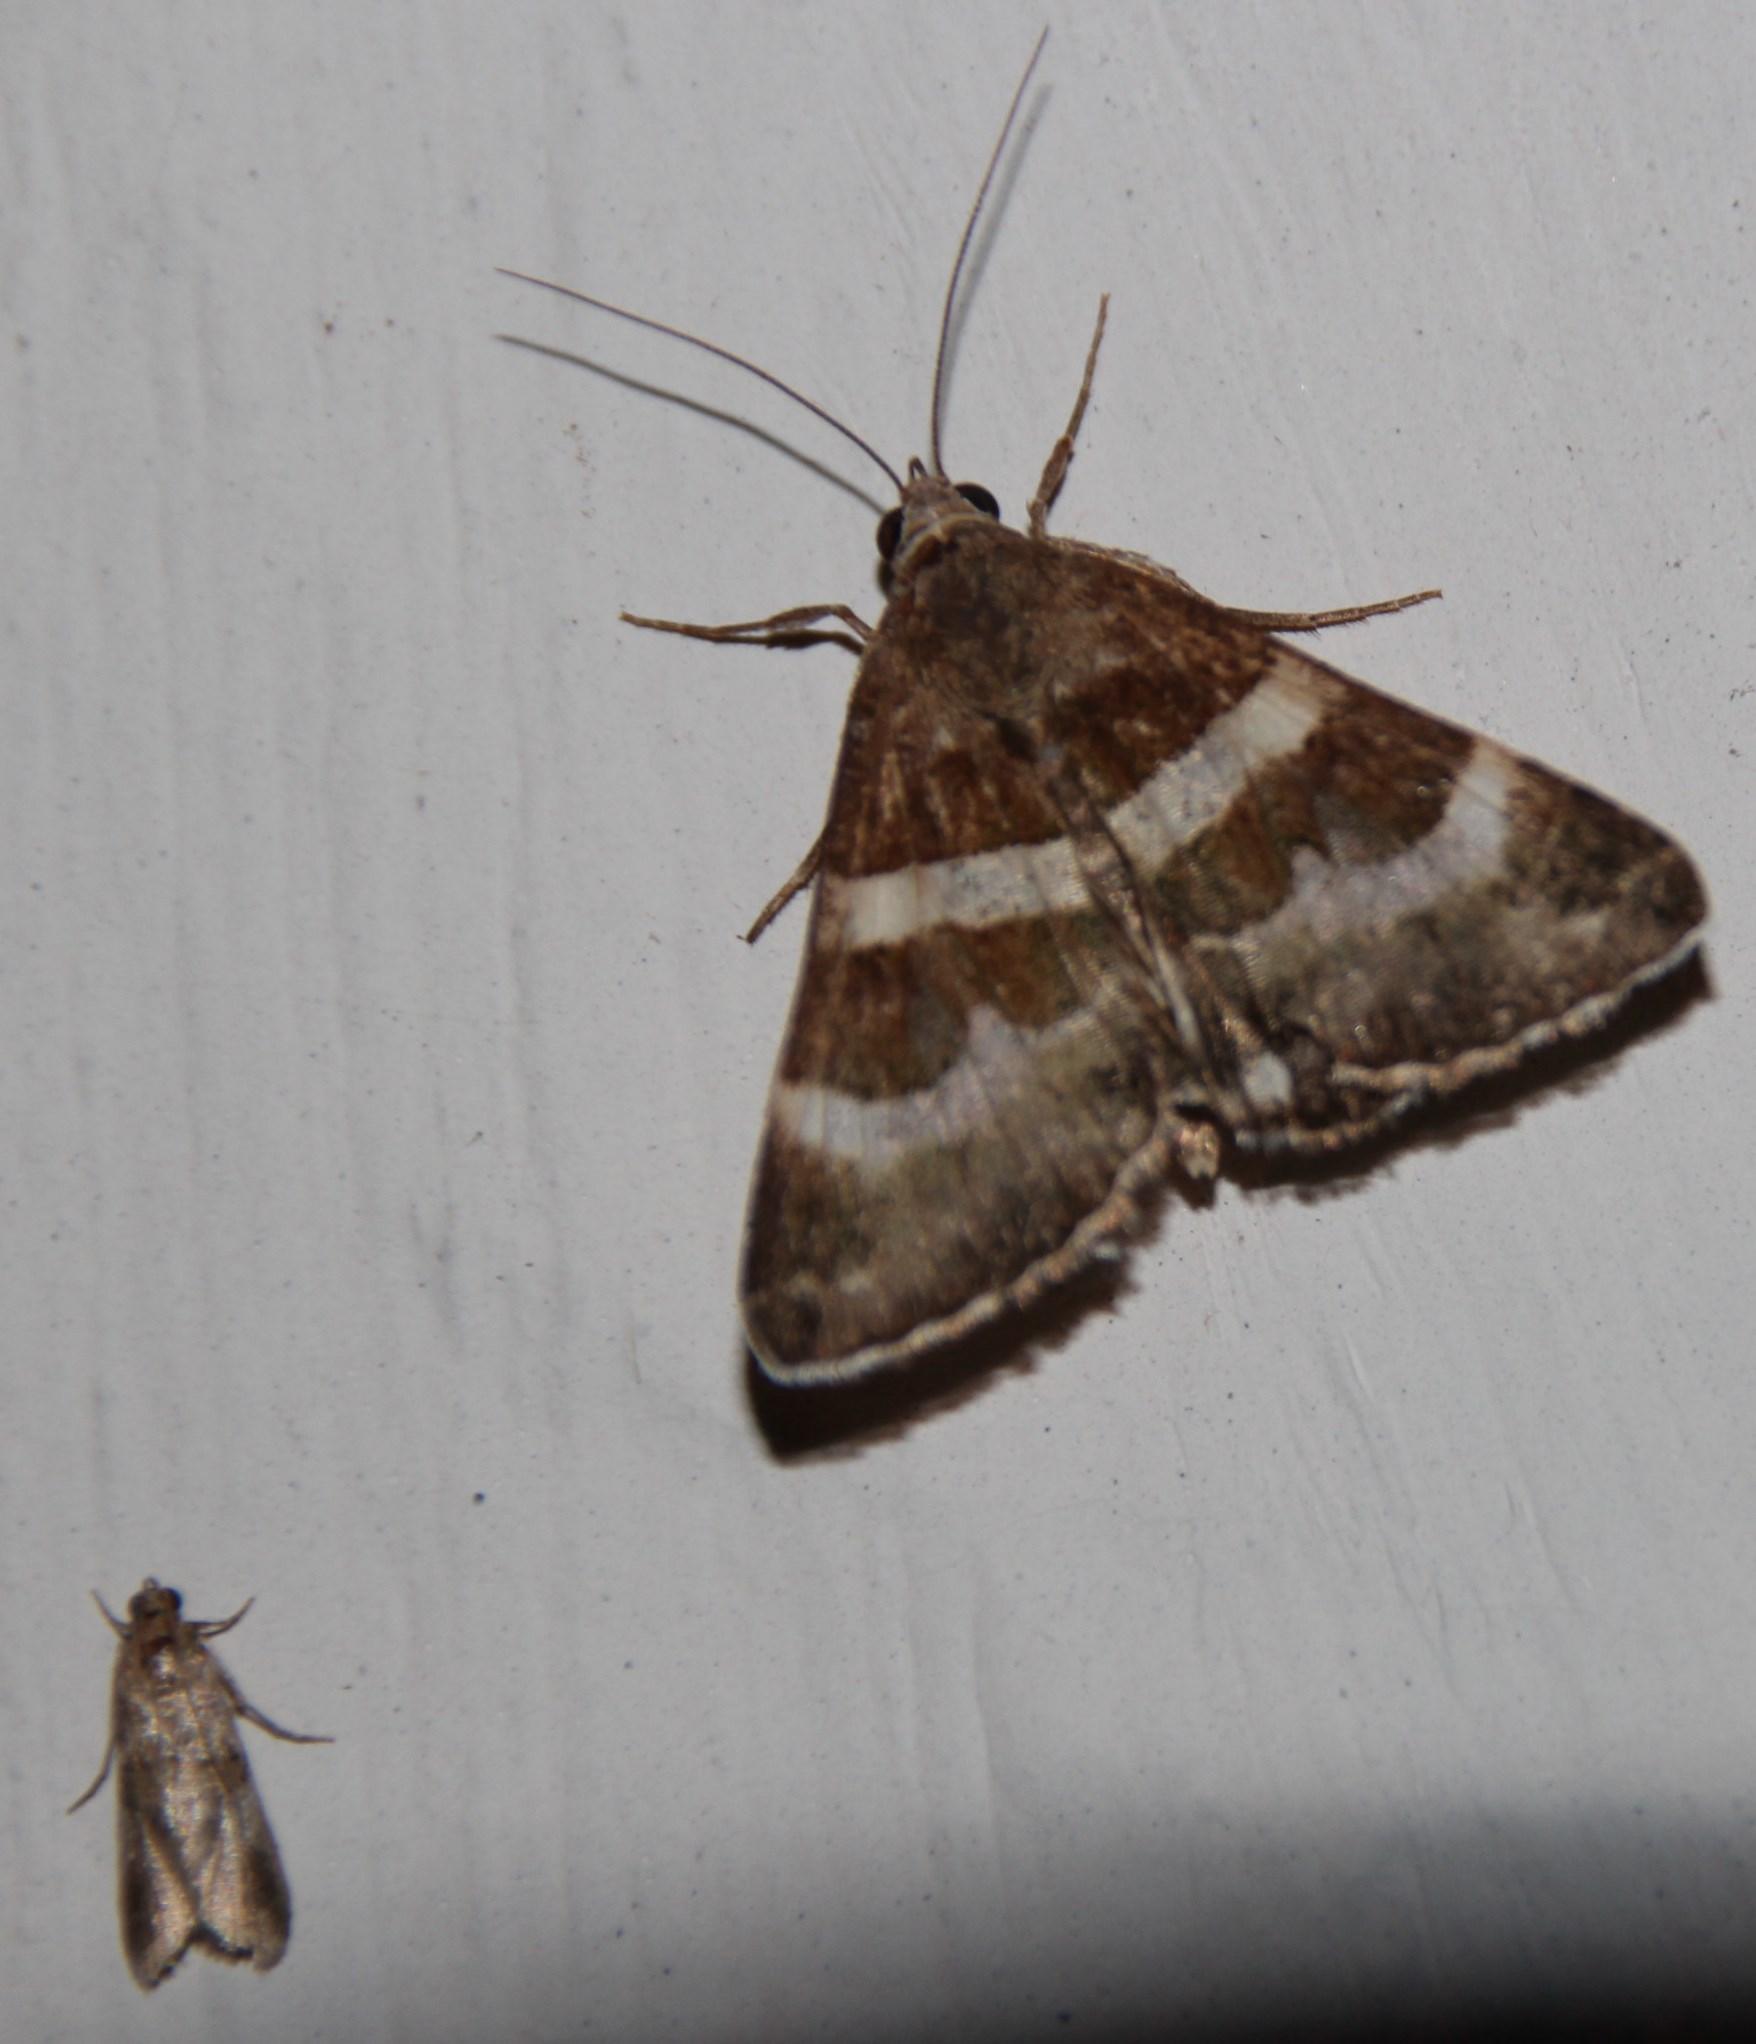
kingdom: Animalia
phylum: Arthropoda
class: Insecta
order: Lepidoptera
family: Erebidae
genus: Grammodes
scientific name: Grammodes stolida
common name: Geometrician
